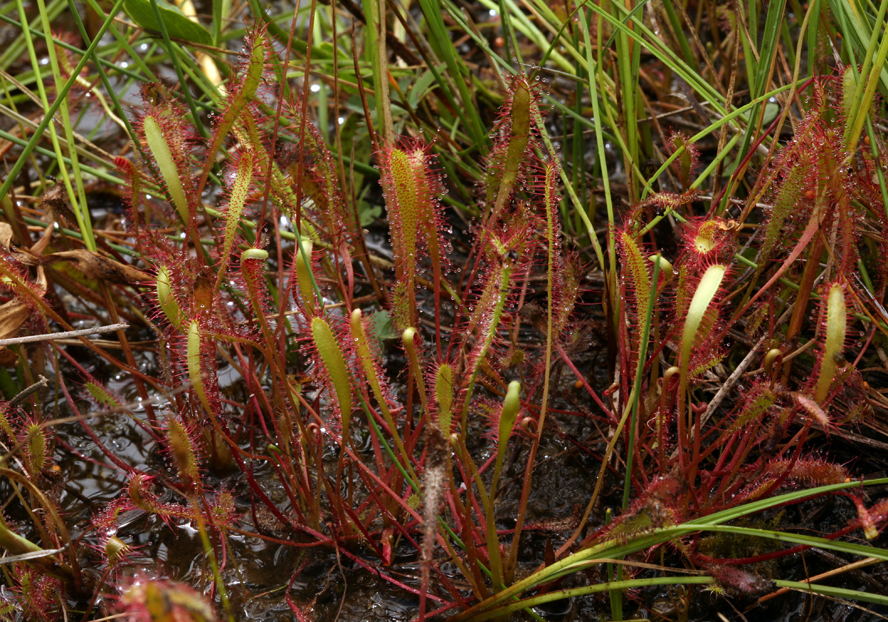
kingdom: Plantae
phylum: Tracheophyta
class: Magnoliopsida
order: Caryophyllales
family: Droseraceae
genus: Drosera
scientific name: Drosera anglica
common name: Great sundew
